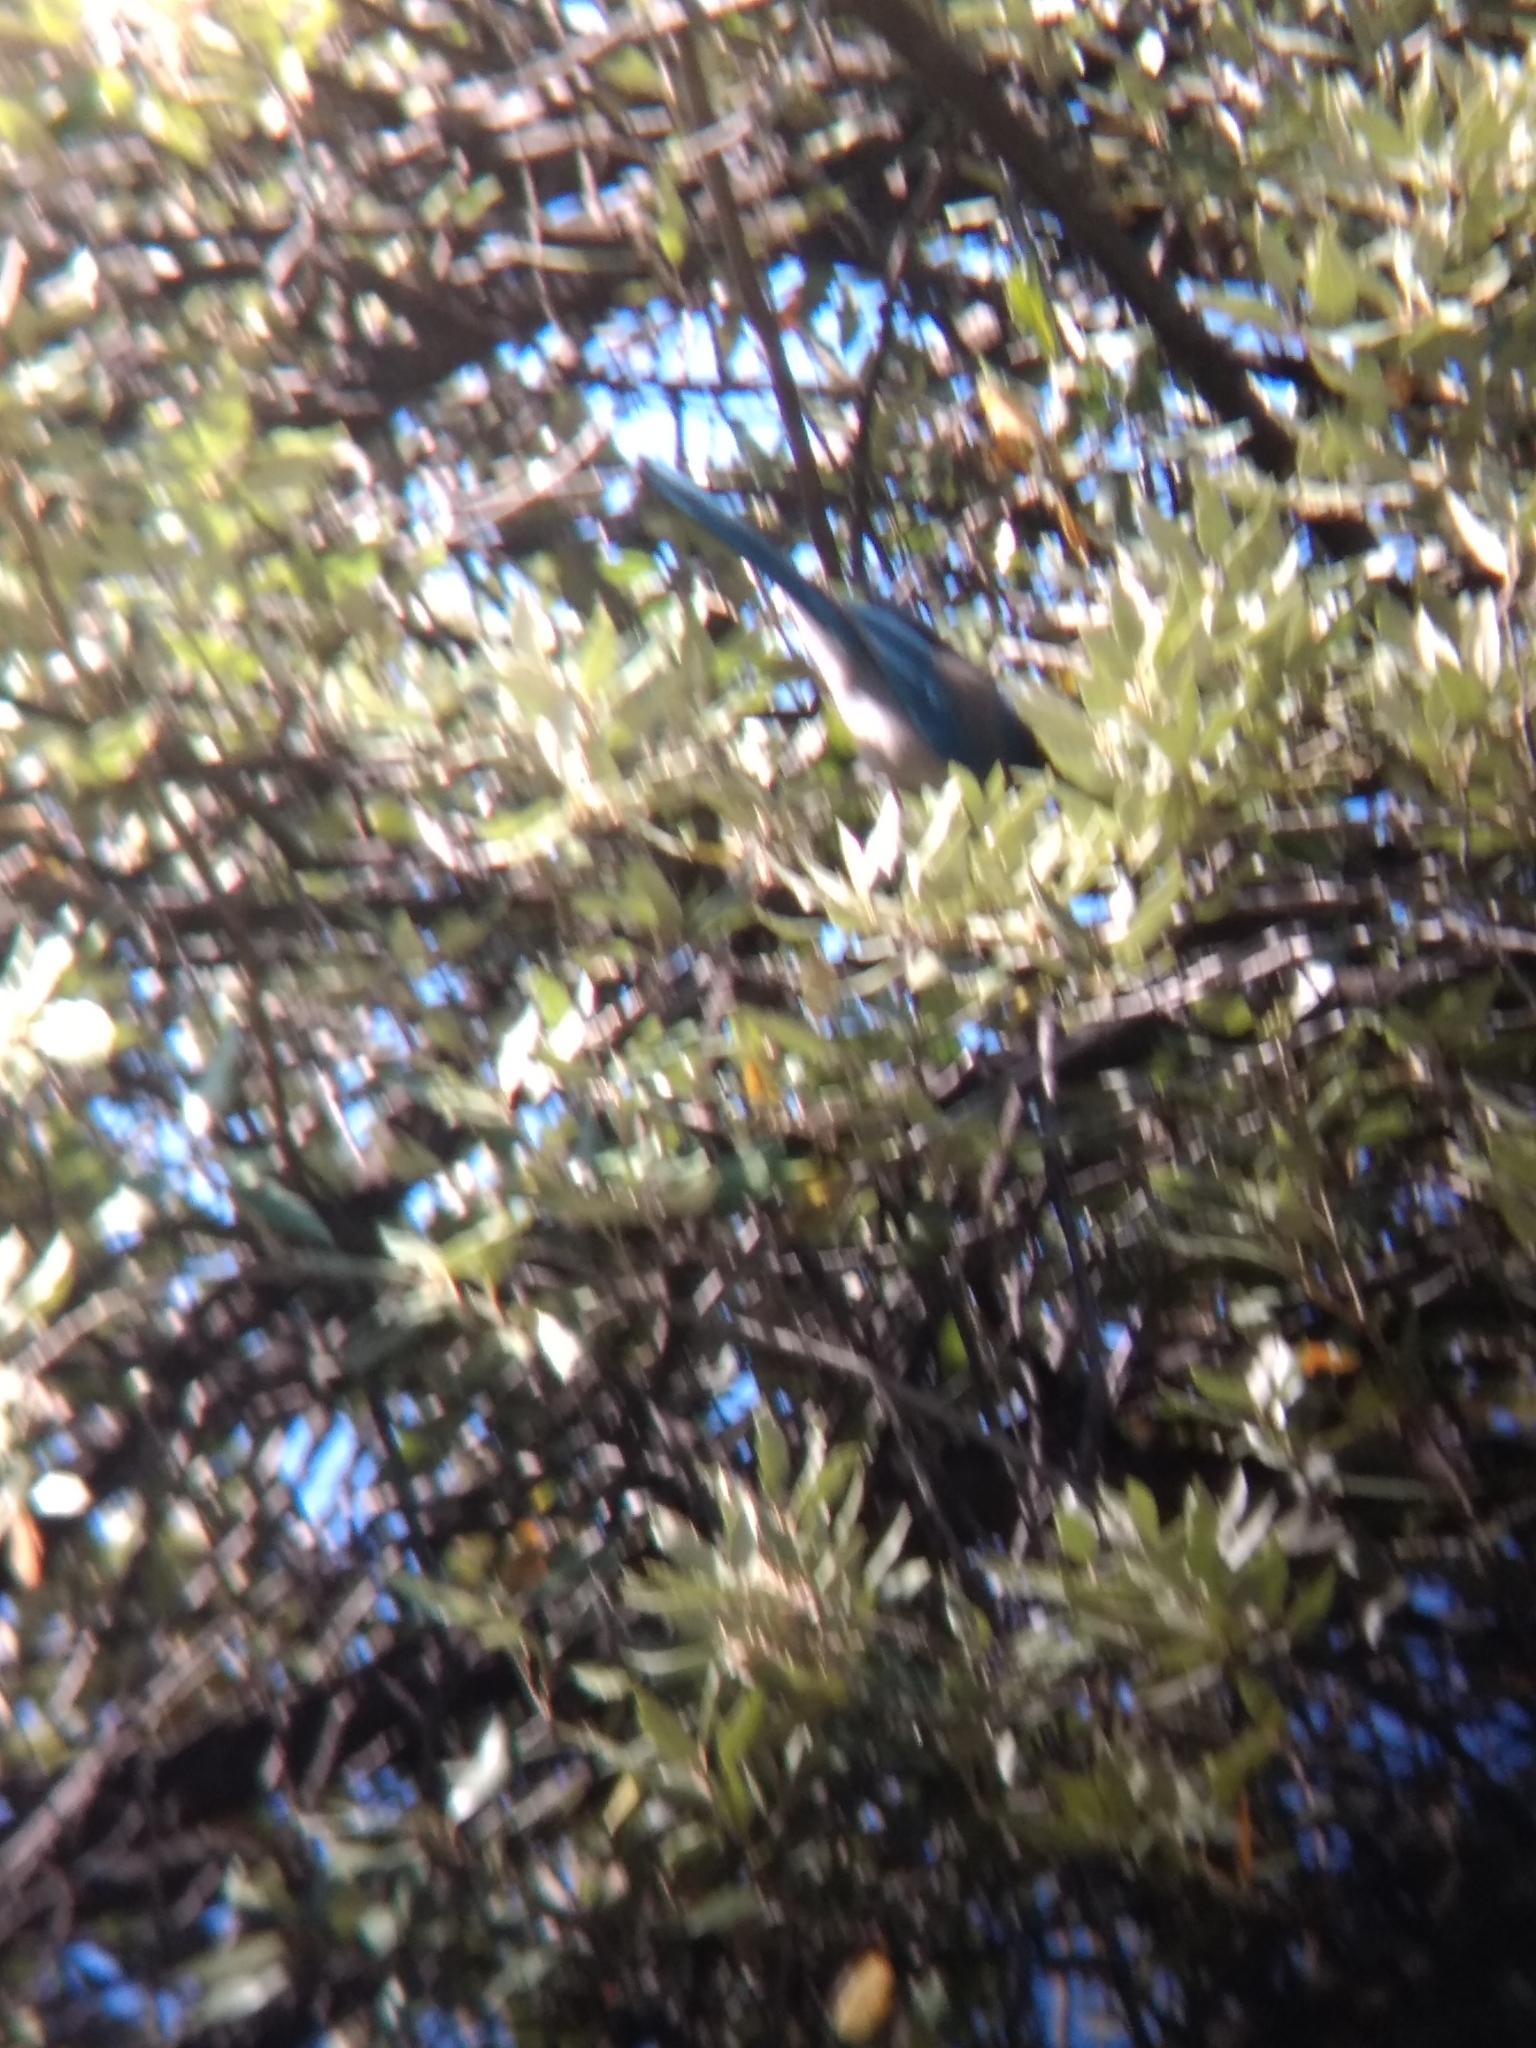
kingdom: Animalia
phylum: Chordata
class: Aves
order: Passeriformes
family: Corvidae
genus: Aphelocoma
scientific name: Aphelocoma californica
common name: California scrub-jay
